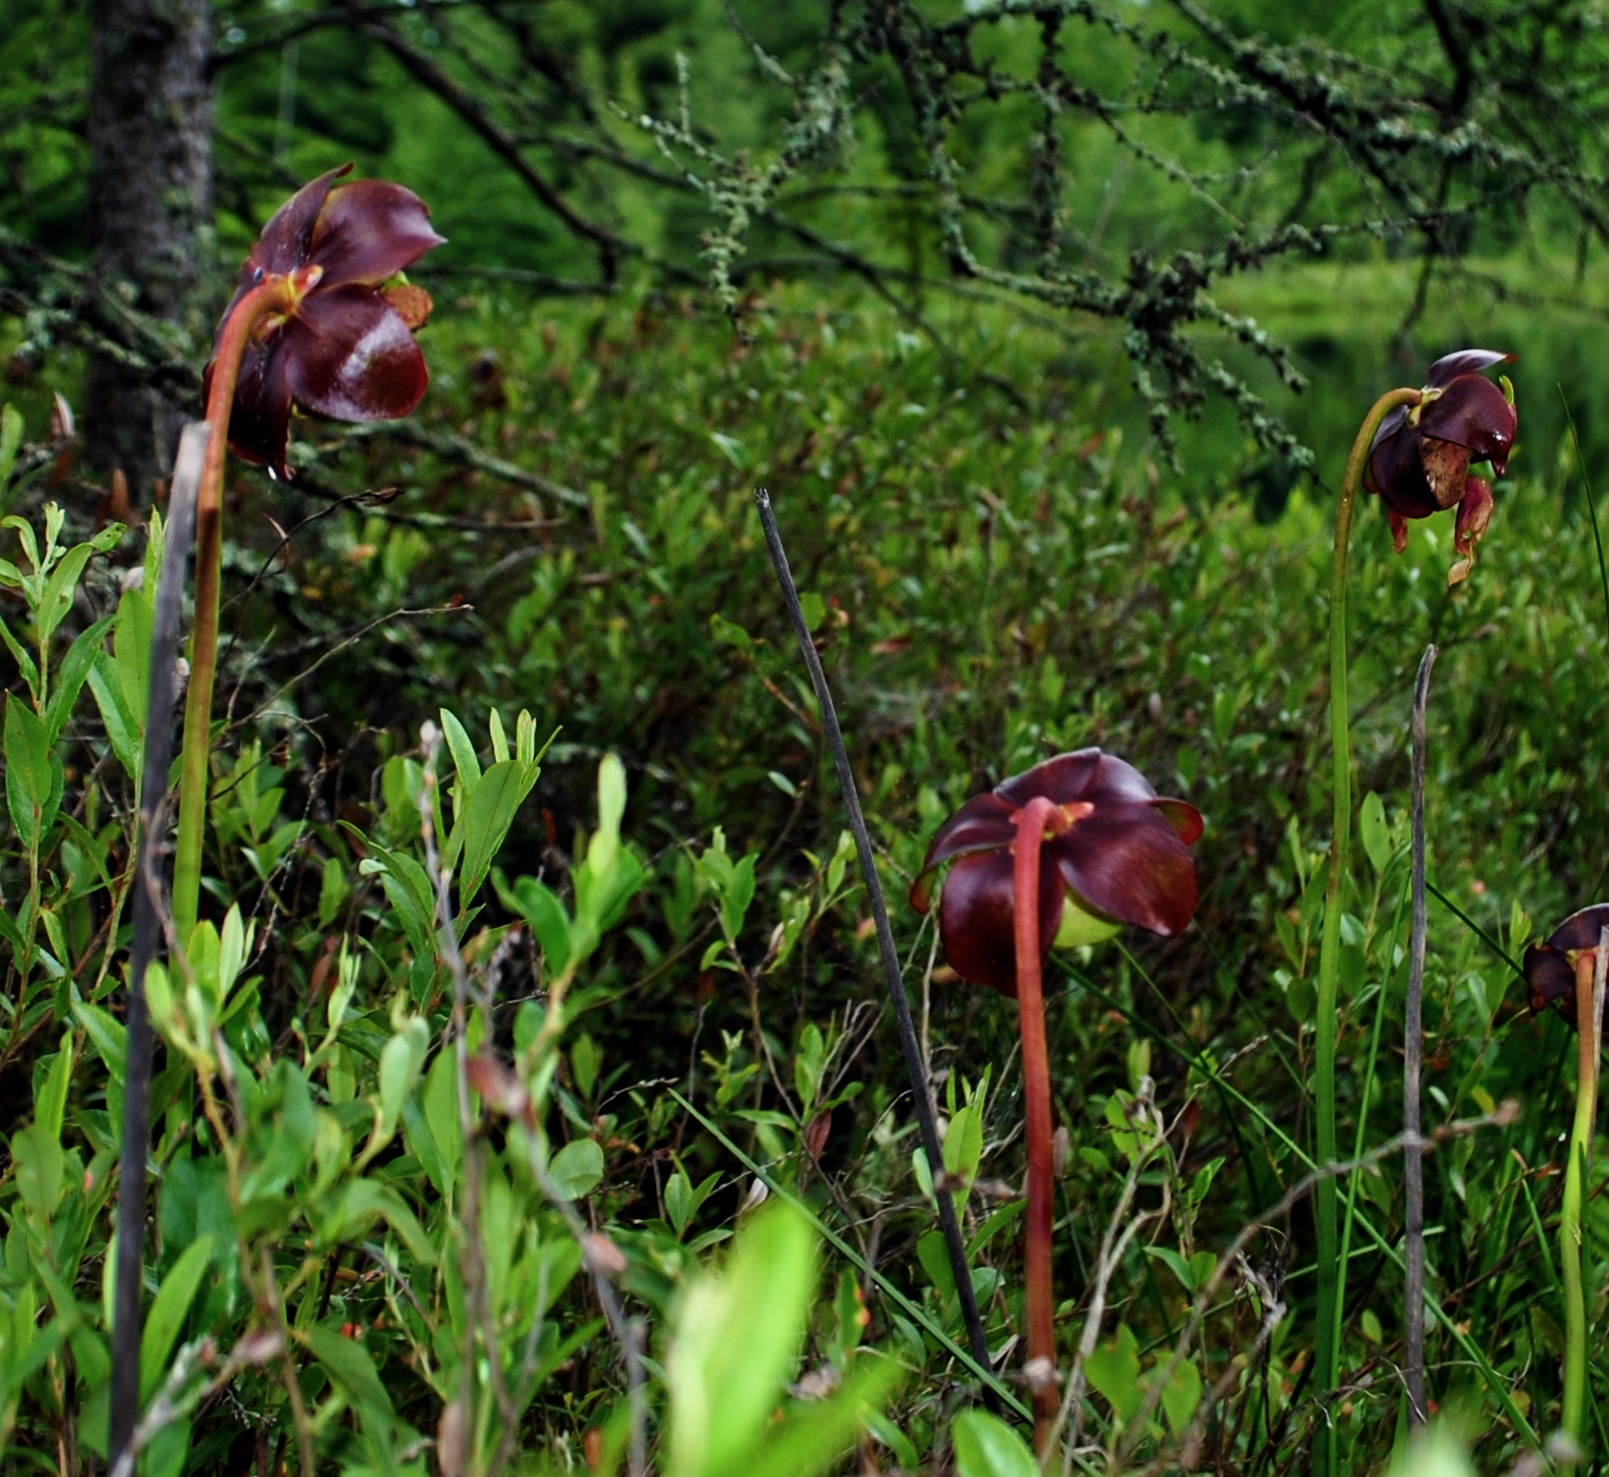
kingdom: Plantae
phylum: Tracheophyta
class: Magnoliopsida
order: Ericales
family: Sarraceniaceae
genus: Sarracenia
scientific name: Sarracenia purpurea
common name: Pitcherplant
